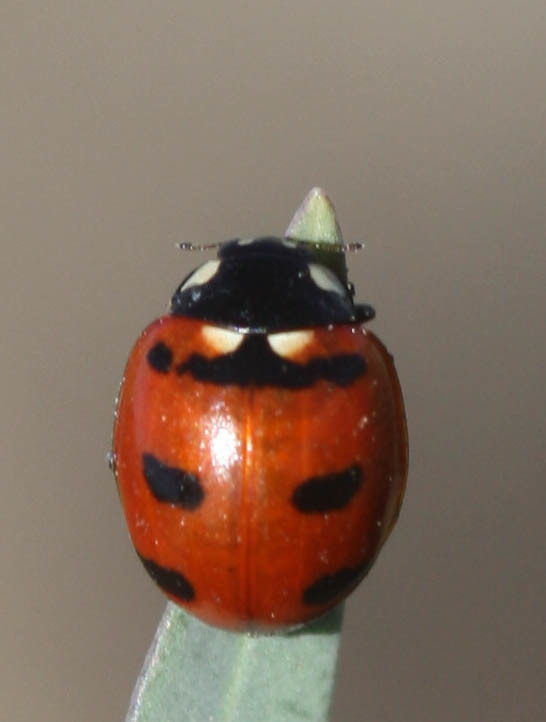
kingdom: Animalia
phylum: Arthropoda
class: Insecta
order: Coleoptera
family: Coccinellidae
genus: Coccinella
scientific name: Coccinella transversoguttata
